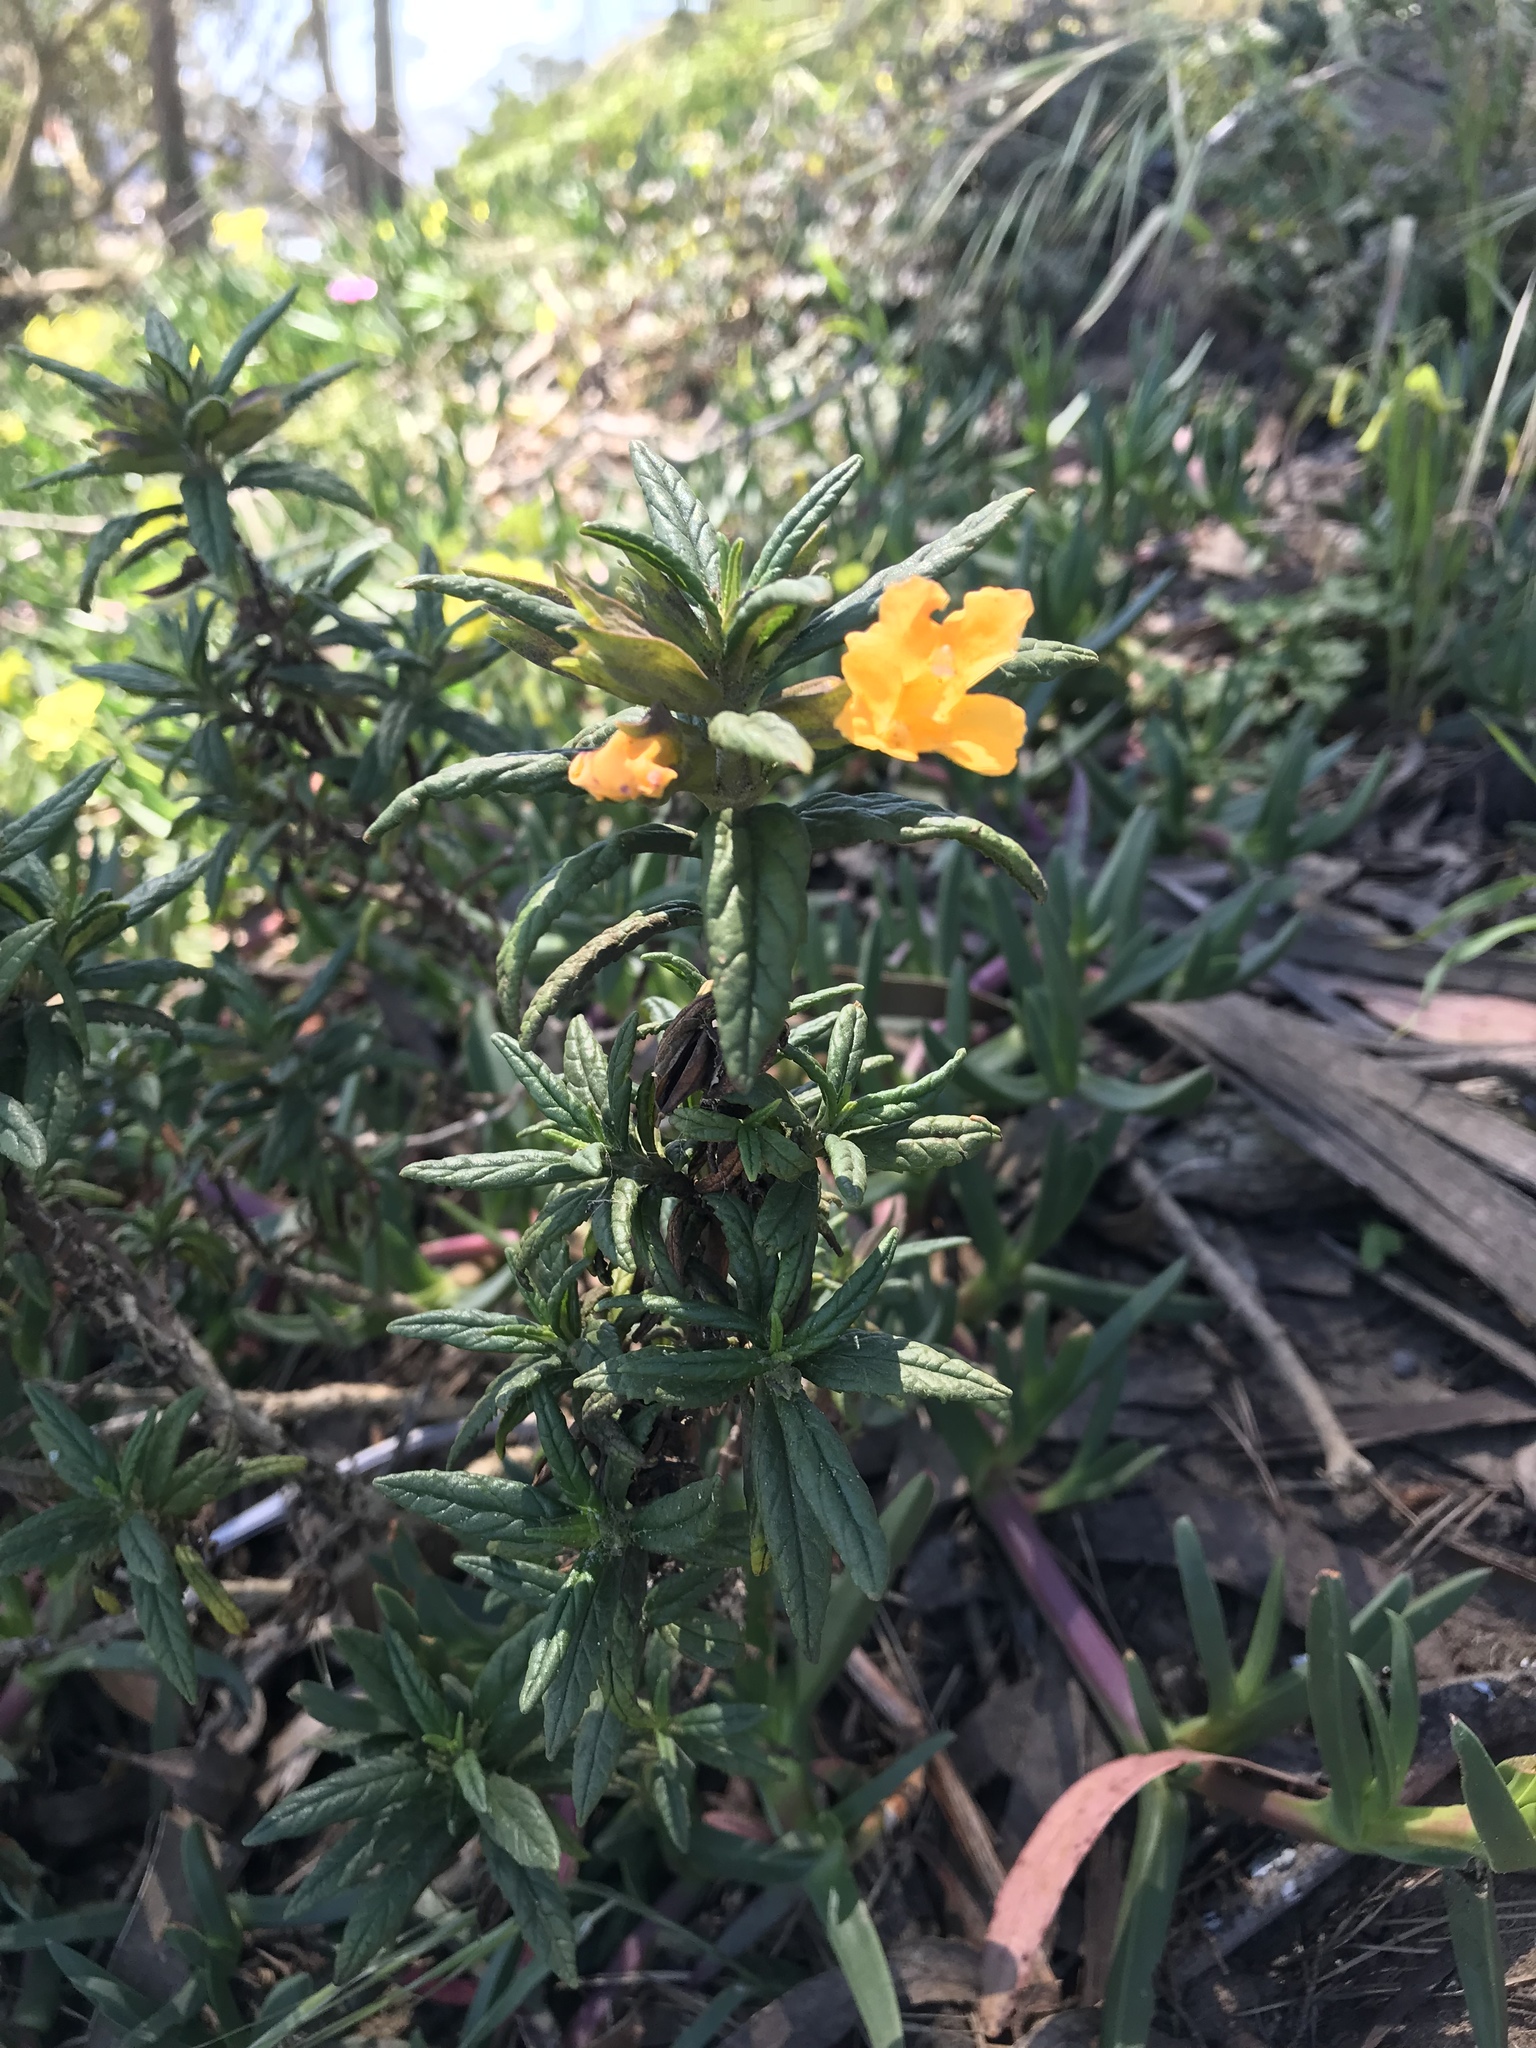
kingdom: Plantae
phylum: Tracheophyta
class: Magnoliopsida
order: Lamiales
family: Phrymaceae
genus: Diplacus
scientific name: Diplacus aurantiacus
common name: Bush monkey-flower
